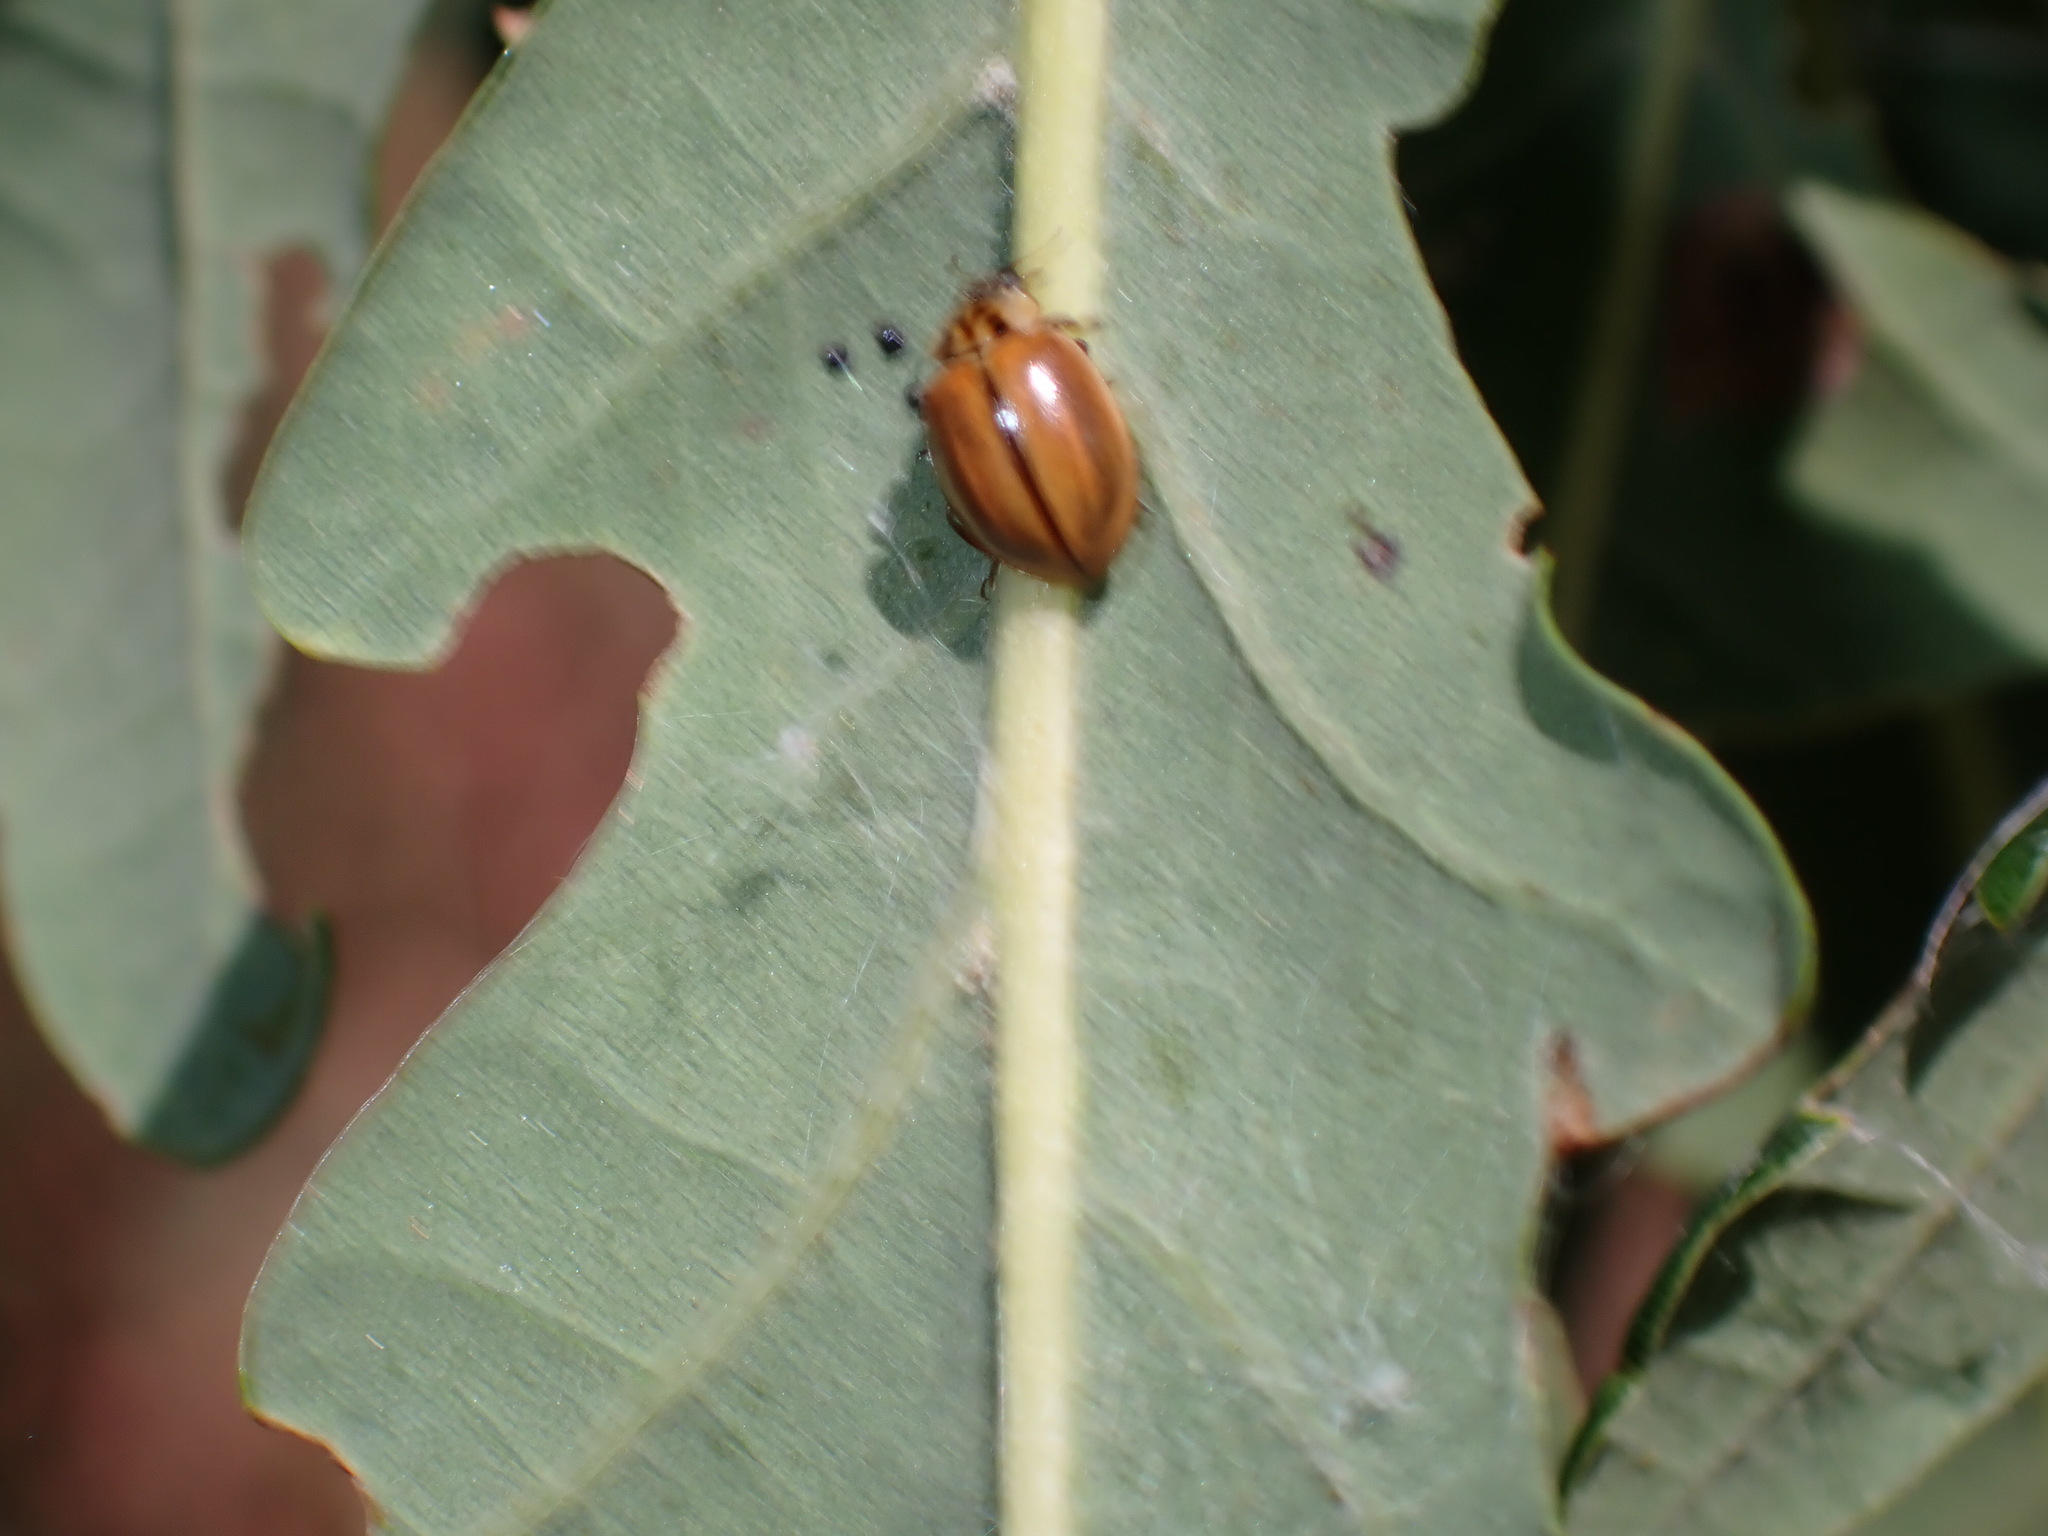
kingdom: Animalia
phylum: Arthropoda
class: Insecta
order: Coleoptera
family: Coccinellidae
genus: Aphidecta
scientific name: Aphidecta obliterata
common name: Larch ladybird
